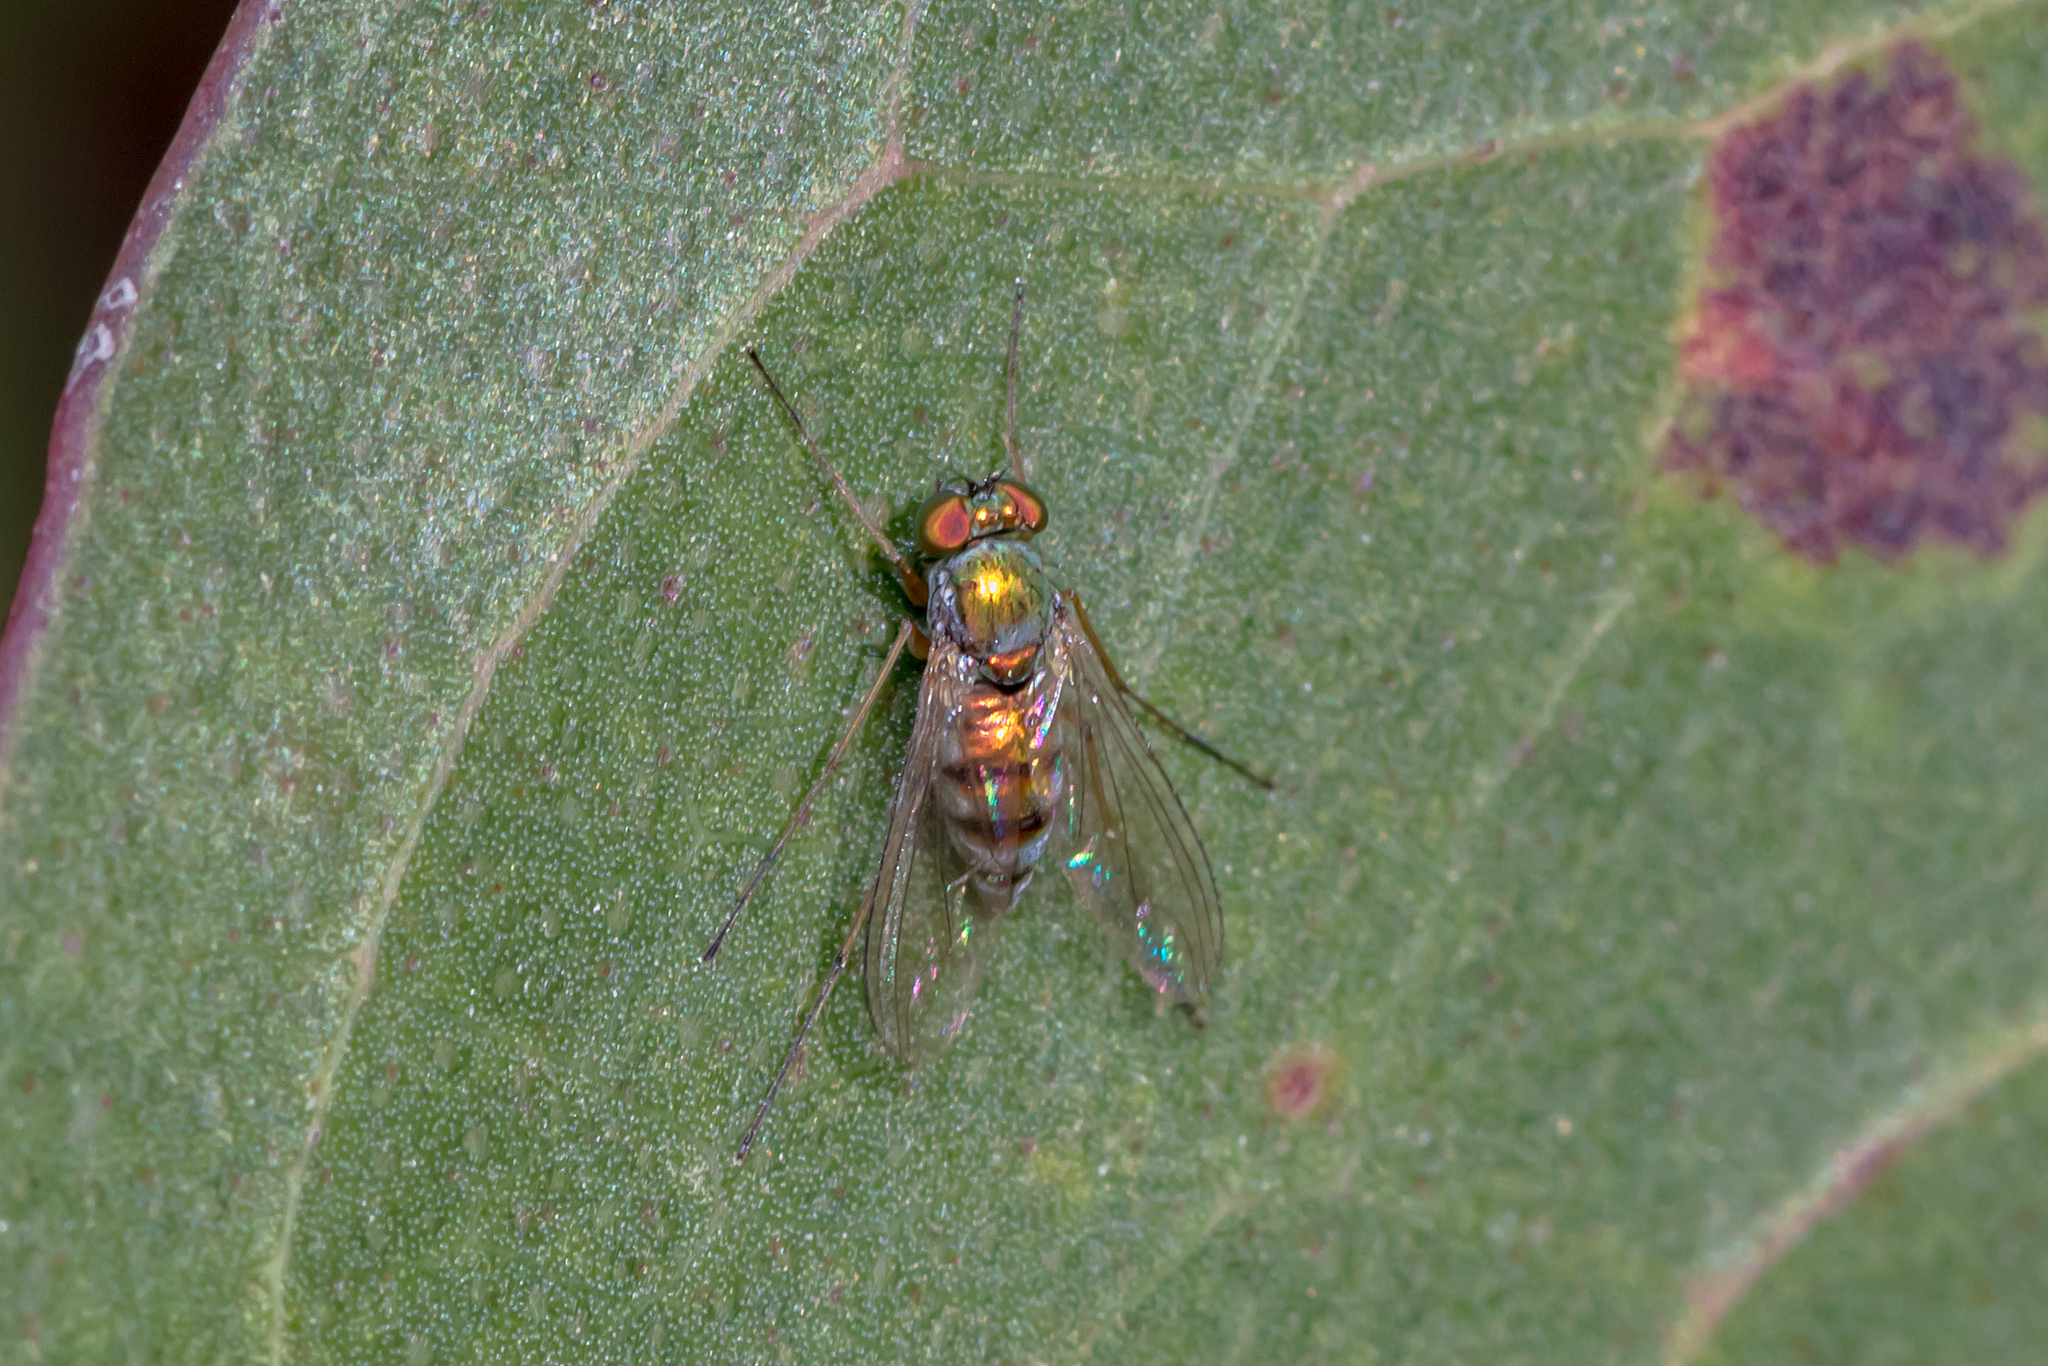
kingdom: Animalia
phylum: Arthropoda
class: Insecta
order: Diptera
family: Dolichopodidae
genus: Parentia
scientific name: Parentia dispar
